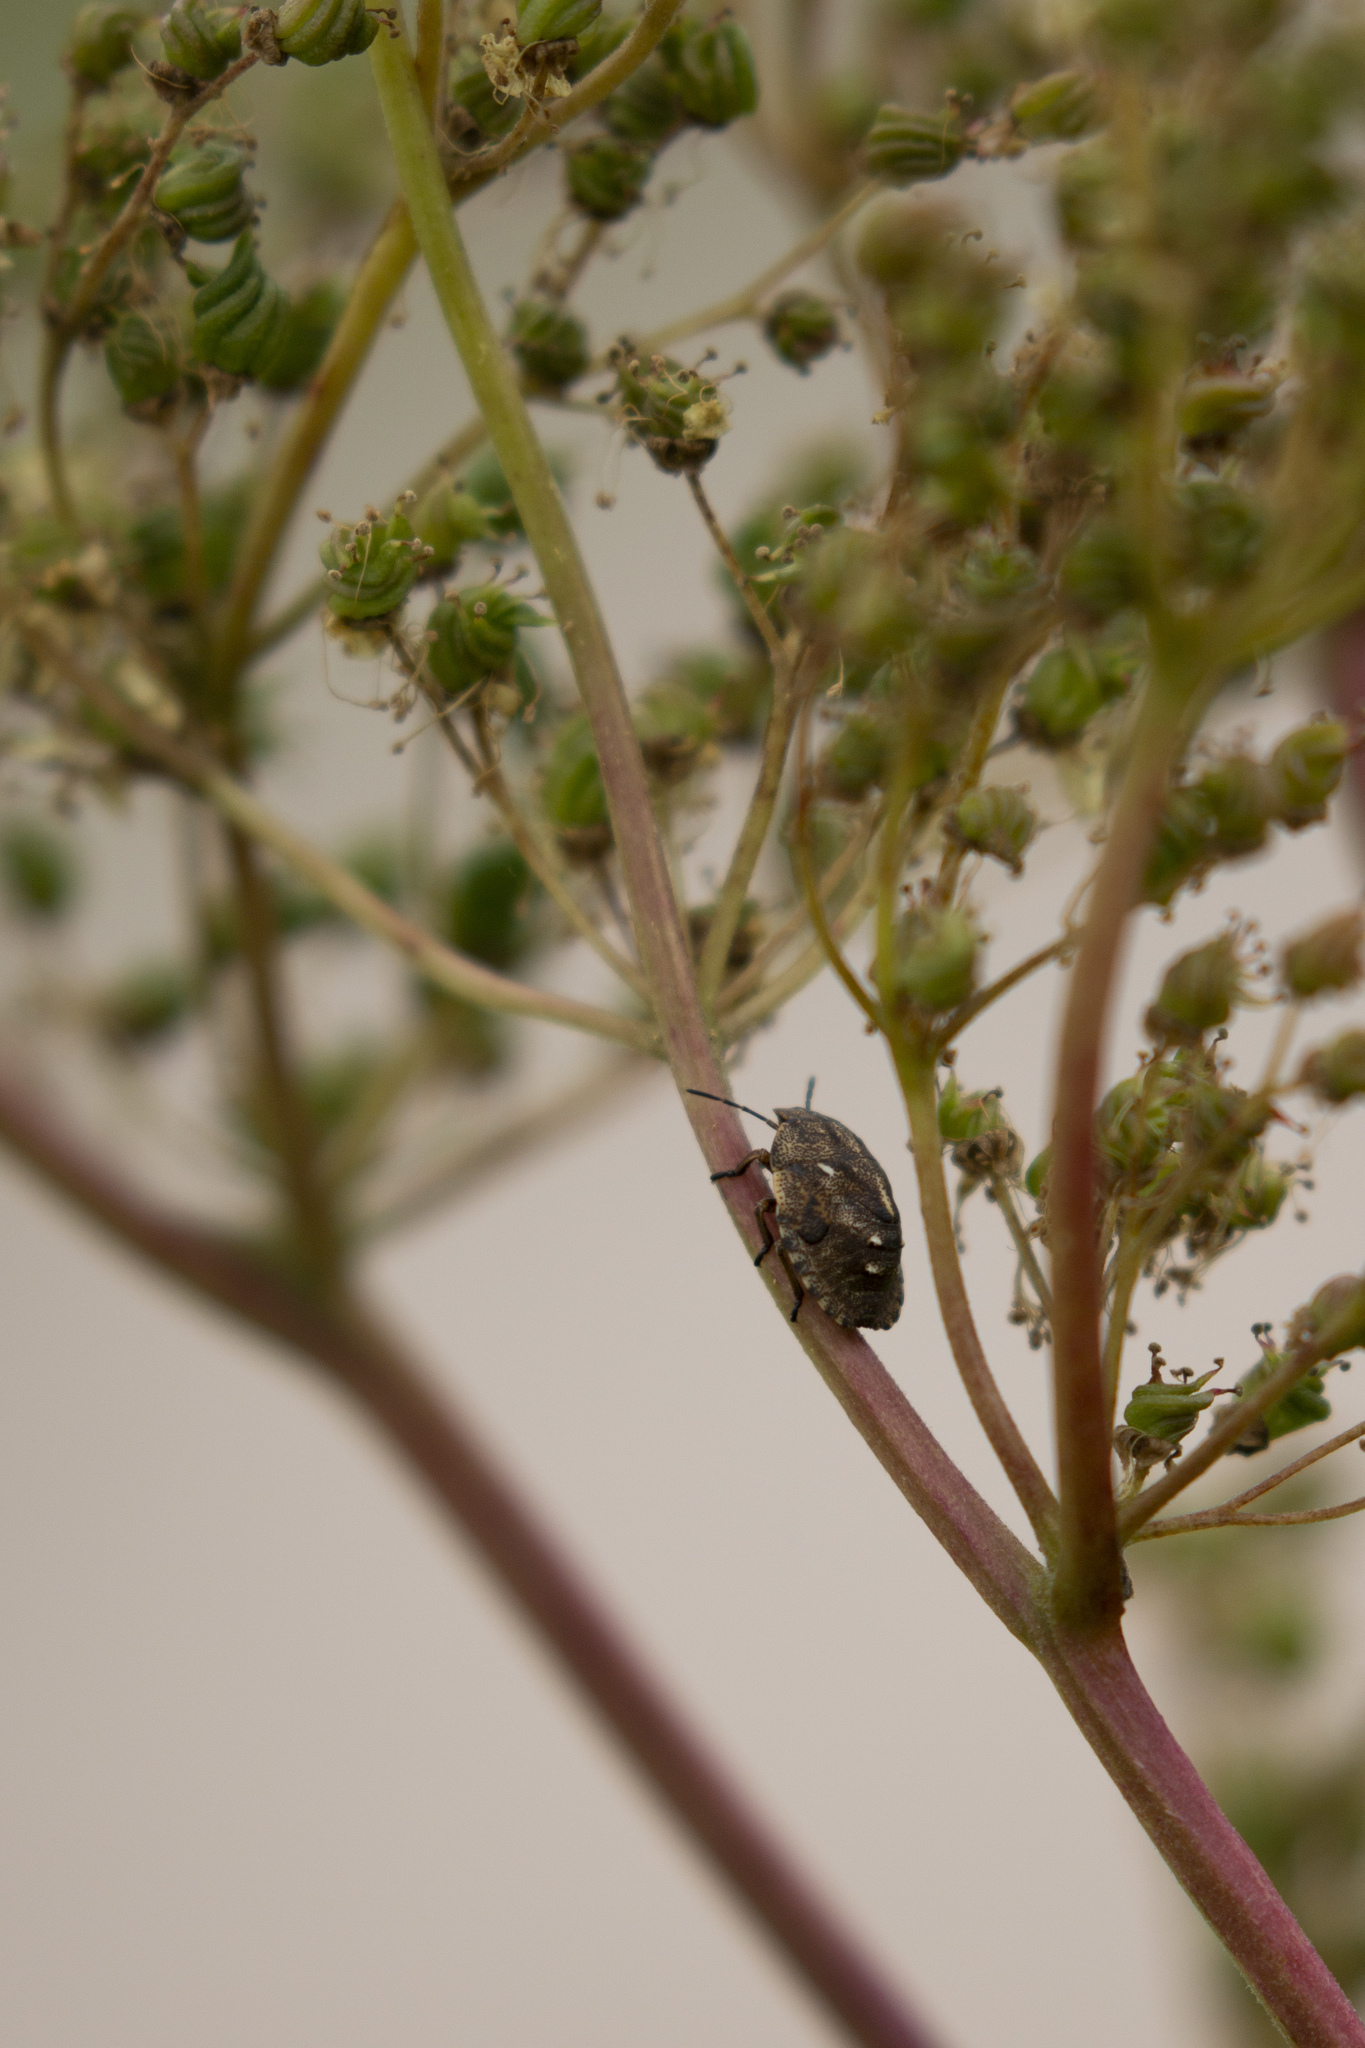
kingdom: Animalia
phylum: Arthropoda
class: Insecta
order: Hemiptera
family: Scutelleridae
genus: Eurygaster
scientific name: Eurygaster testudinaria
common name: Tortoise bug
